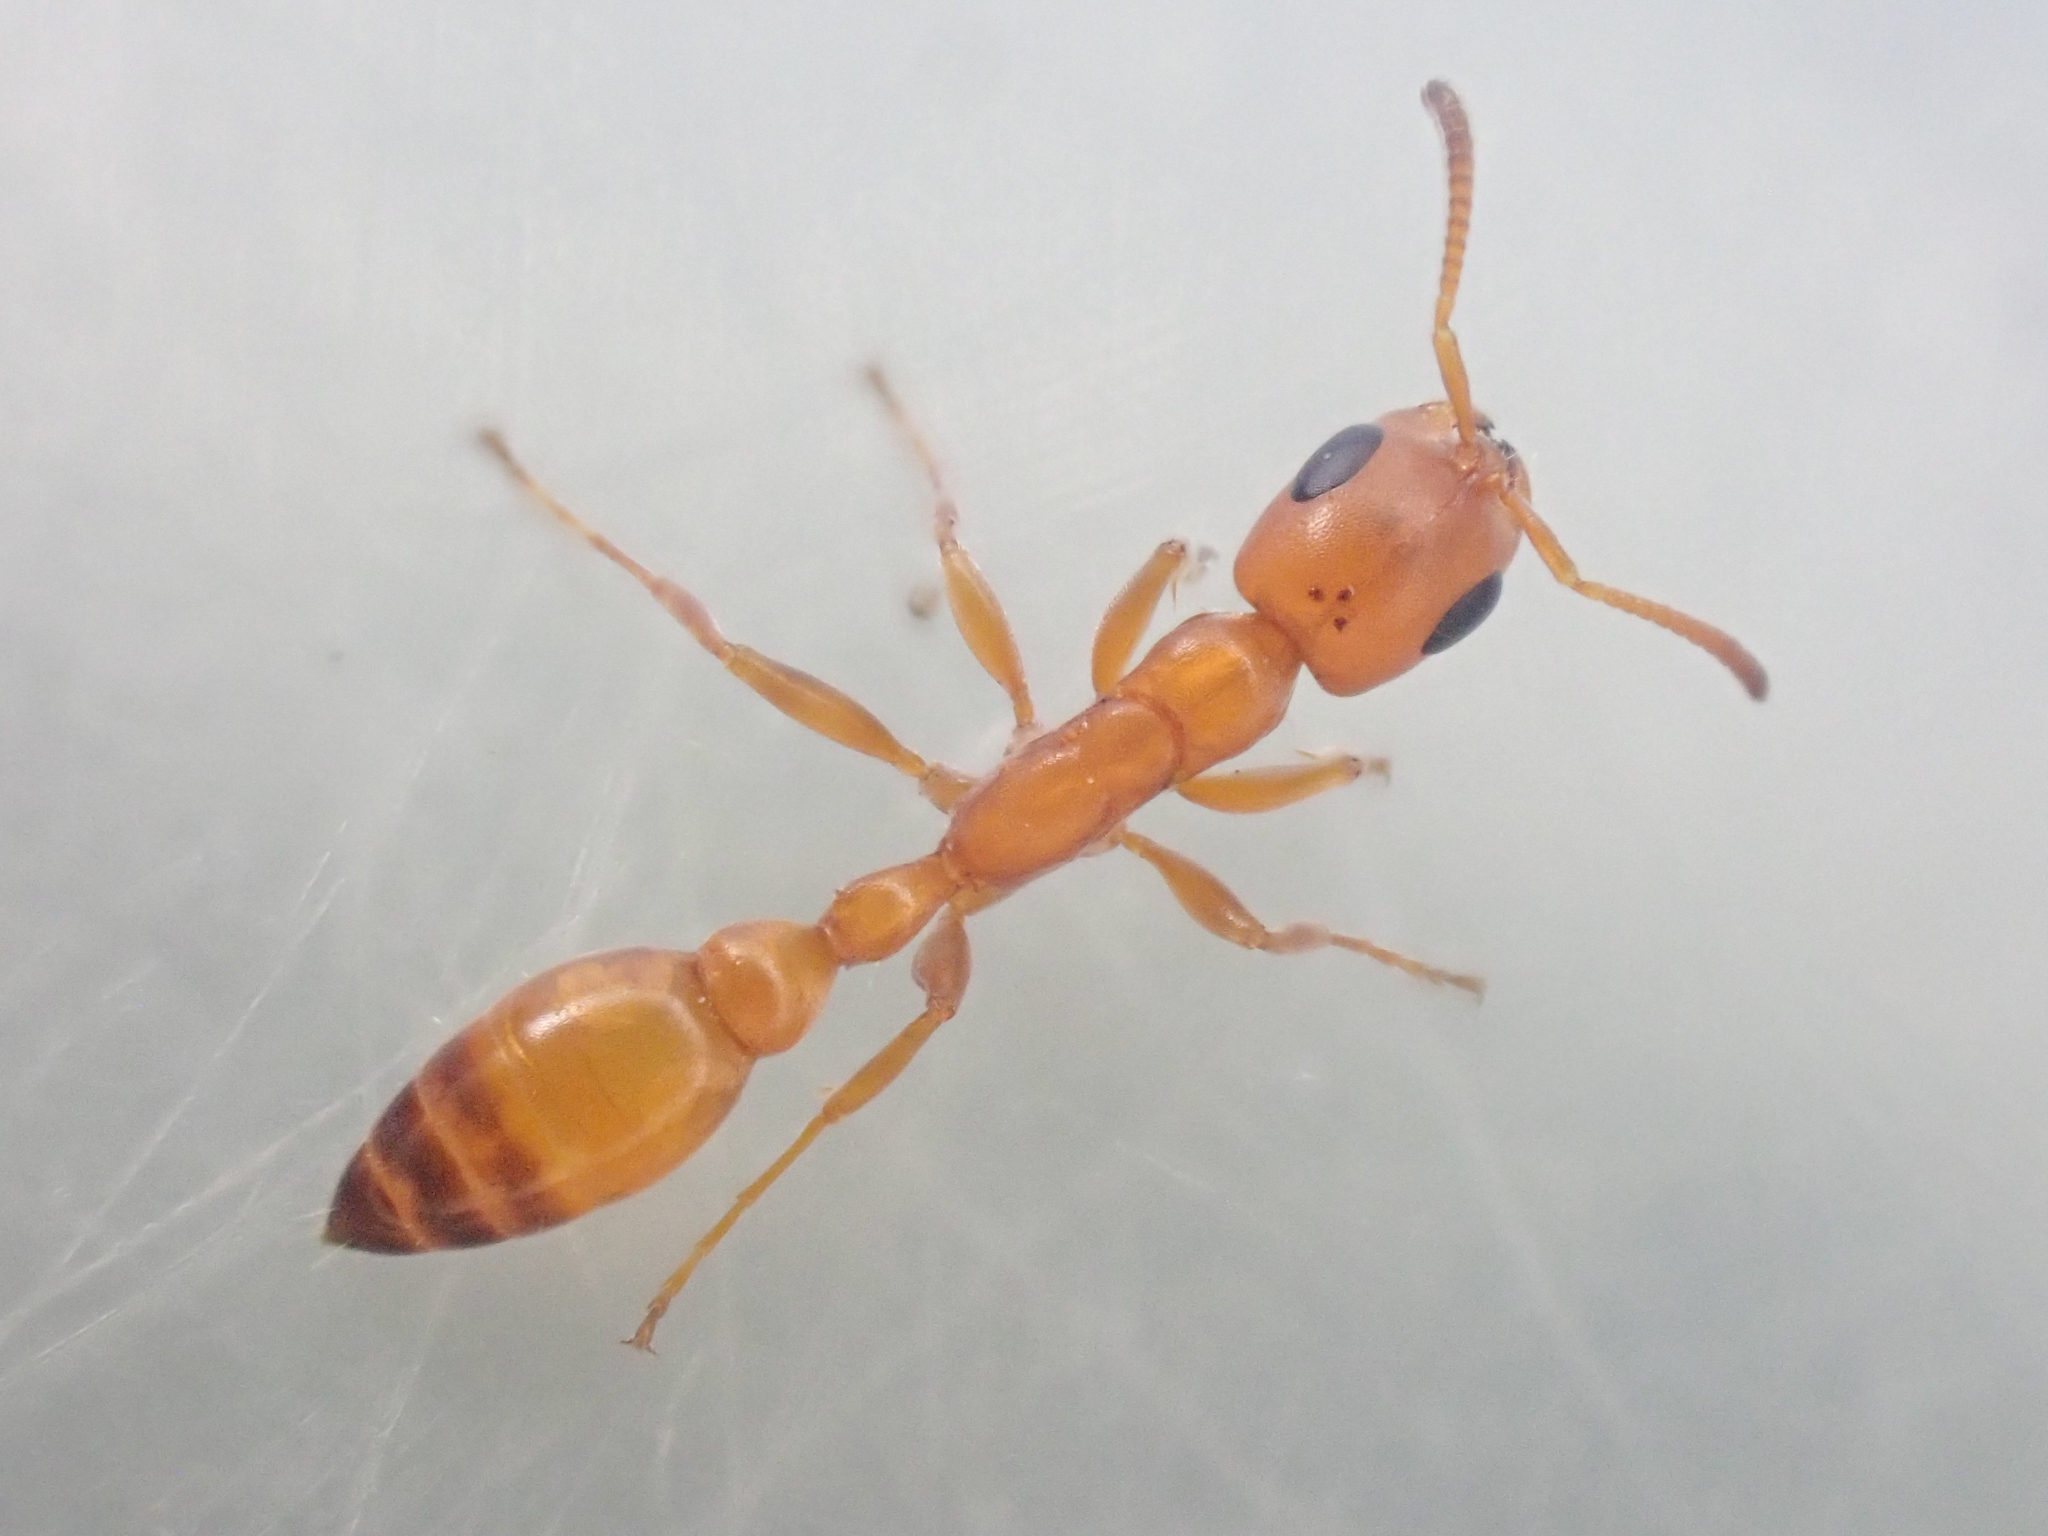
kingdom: Animalia
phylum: Arthropoda
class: Insecta
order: Hymenoptera
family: Formicidae
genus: Pseudomyrmex
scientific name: Pseudomyrmex apache
